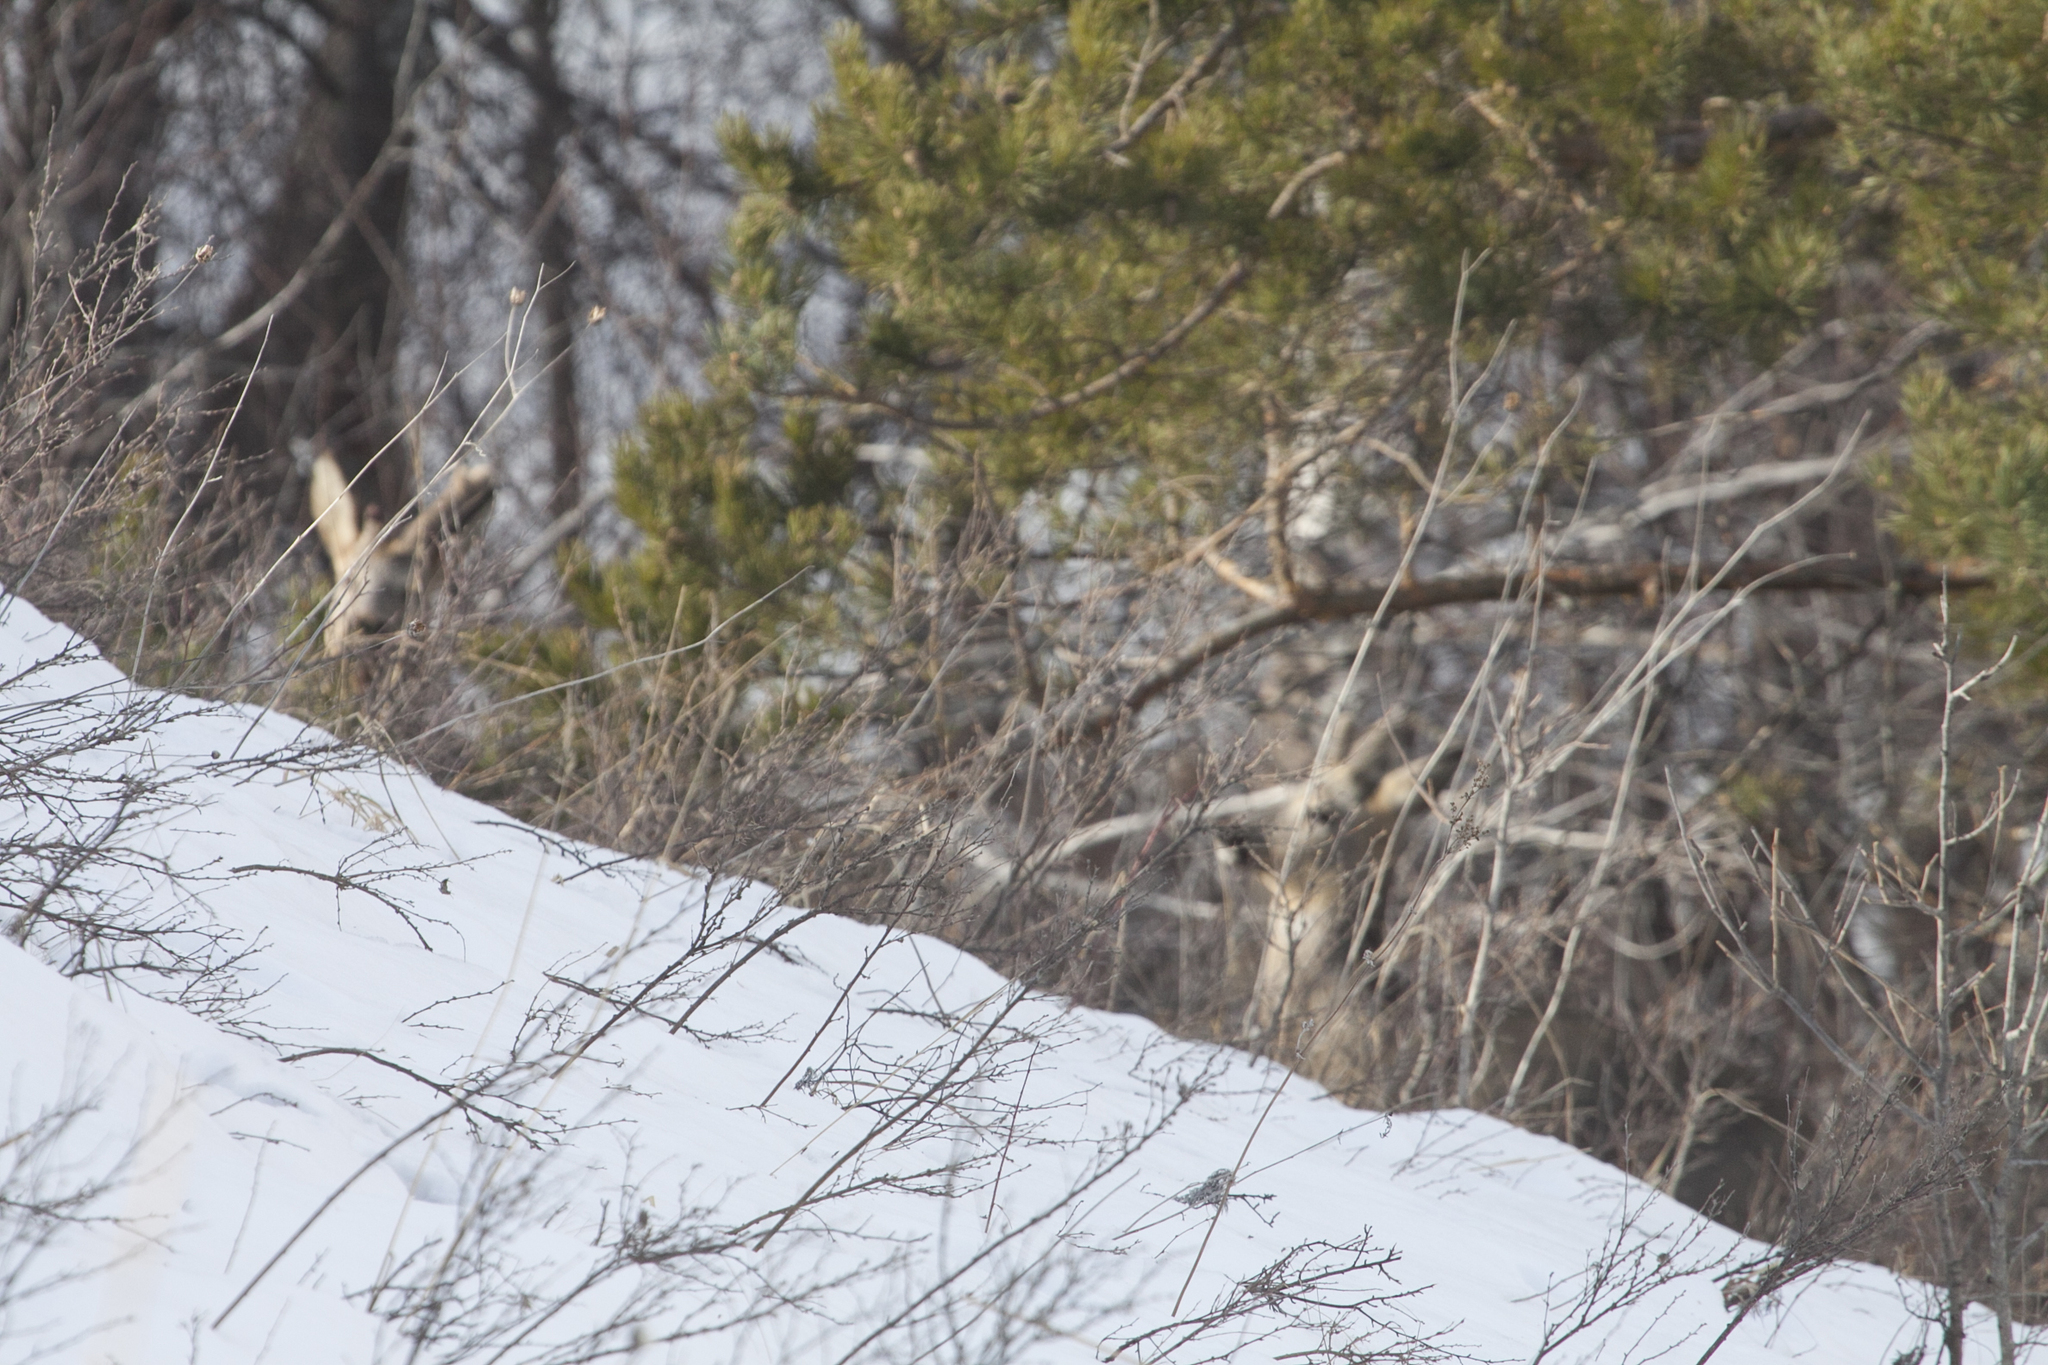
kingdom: Animalia
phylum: Chordata
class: Mammalia
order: Artiodactyla
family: Cervidae
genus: Capreolus
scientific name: Capreolus pygargus
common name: Siberian roe
